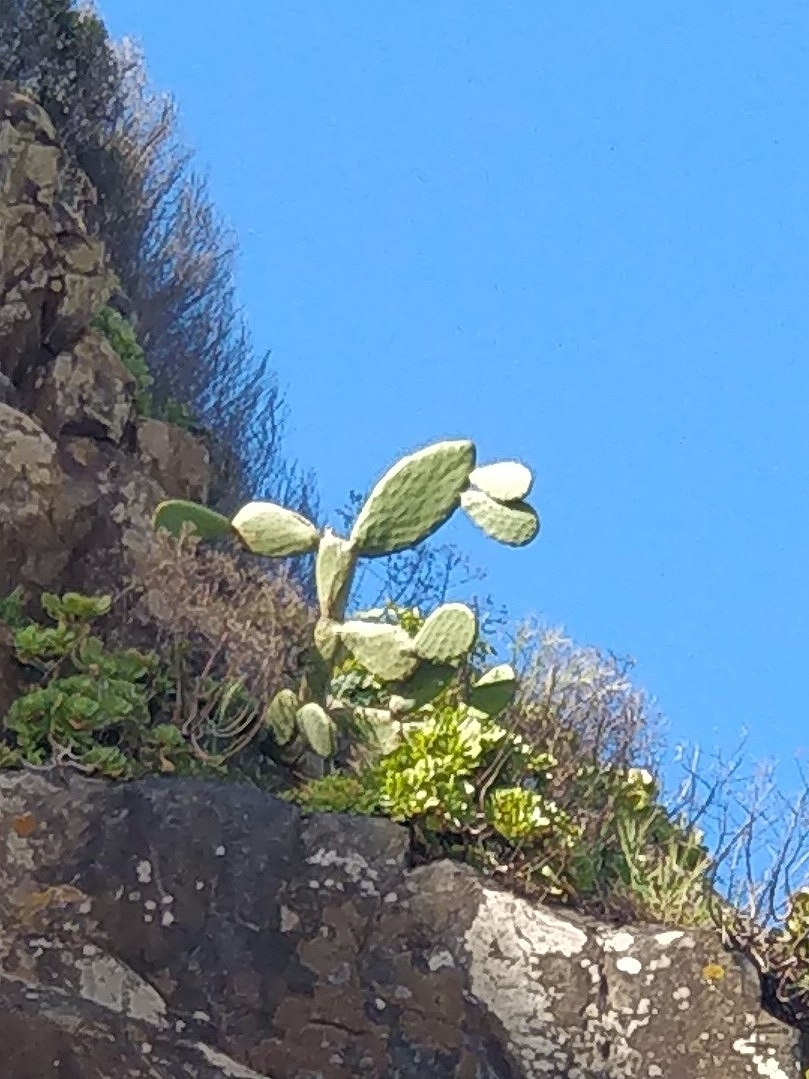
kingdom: Plantae
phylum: Tracheophyta
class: Magnoliopsida
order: Caryophyllales
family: Cactaceae
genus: Opuntia
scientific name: Opuntia ficus-indica
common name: Barbary fig
